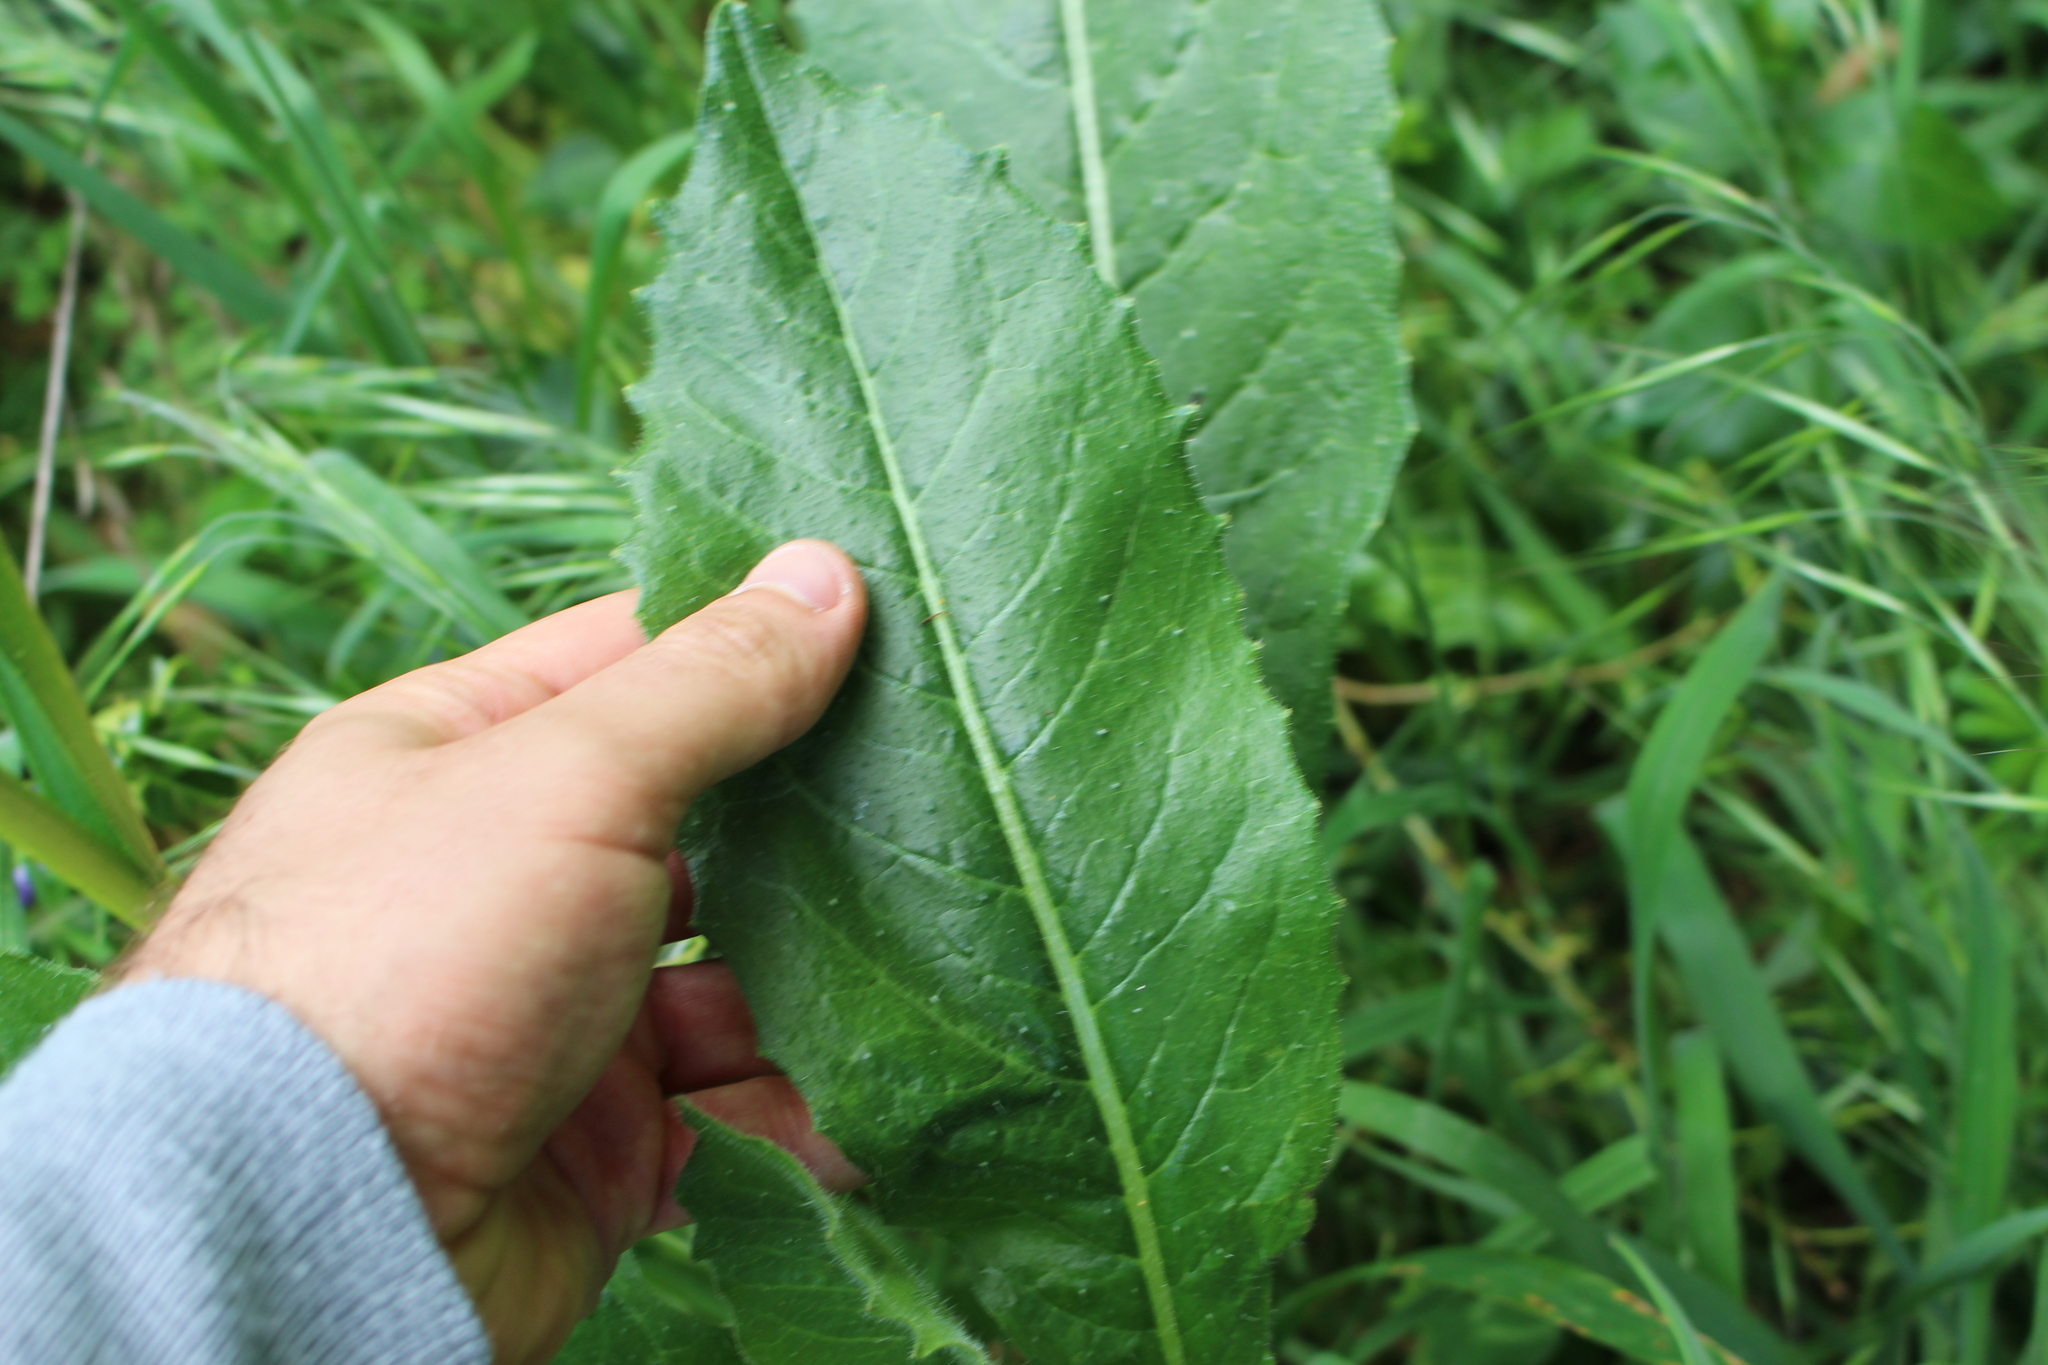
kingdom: Plantae
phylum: Tracheophyta
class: Magnoliopsida
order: Asterales
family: Asteraceae
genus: Helminthotheca
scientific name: Helminthotheca echioides
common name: Ox-tongue
